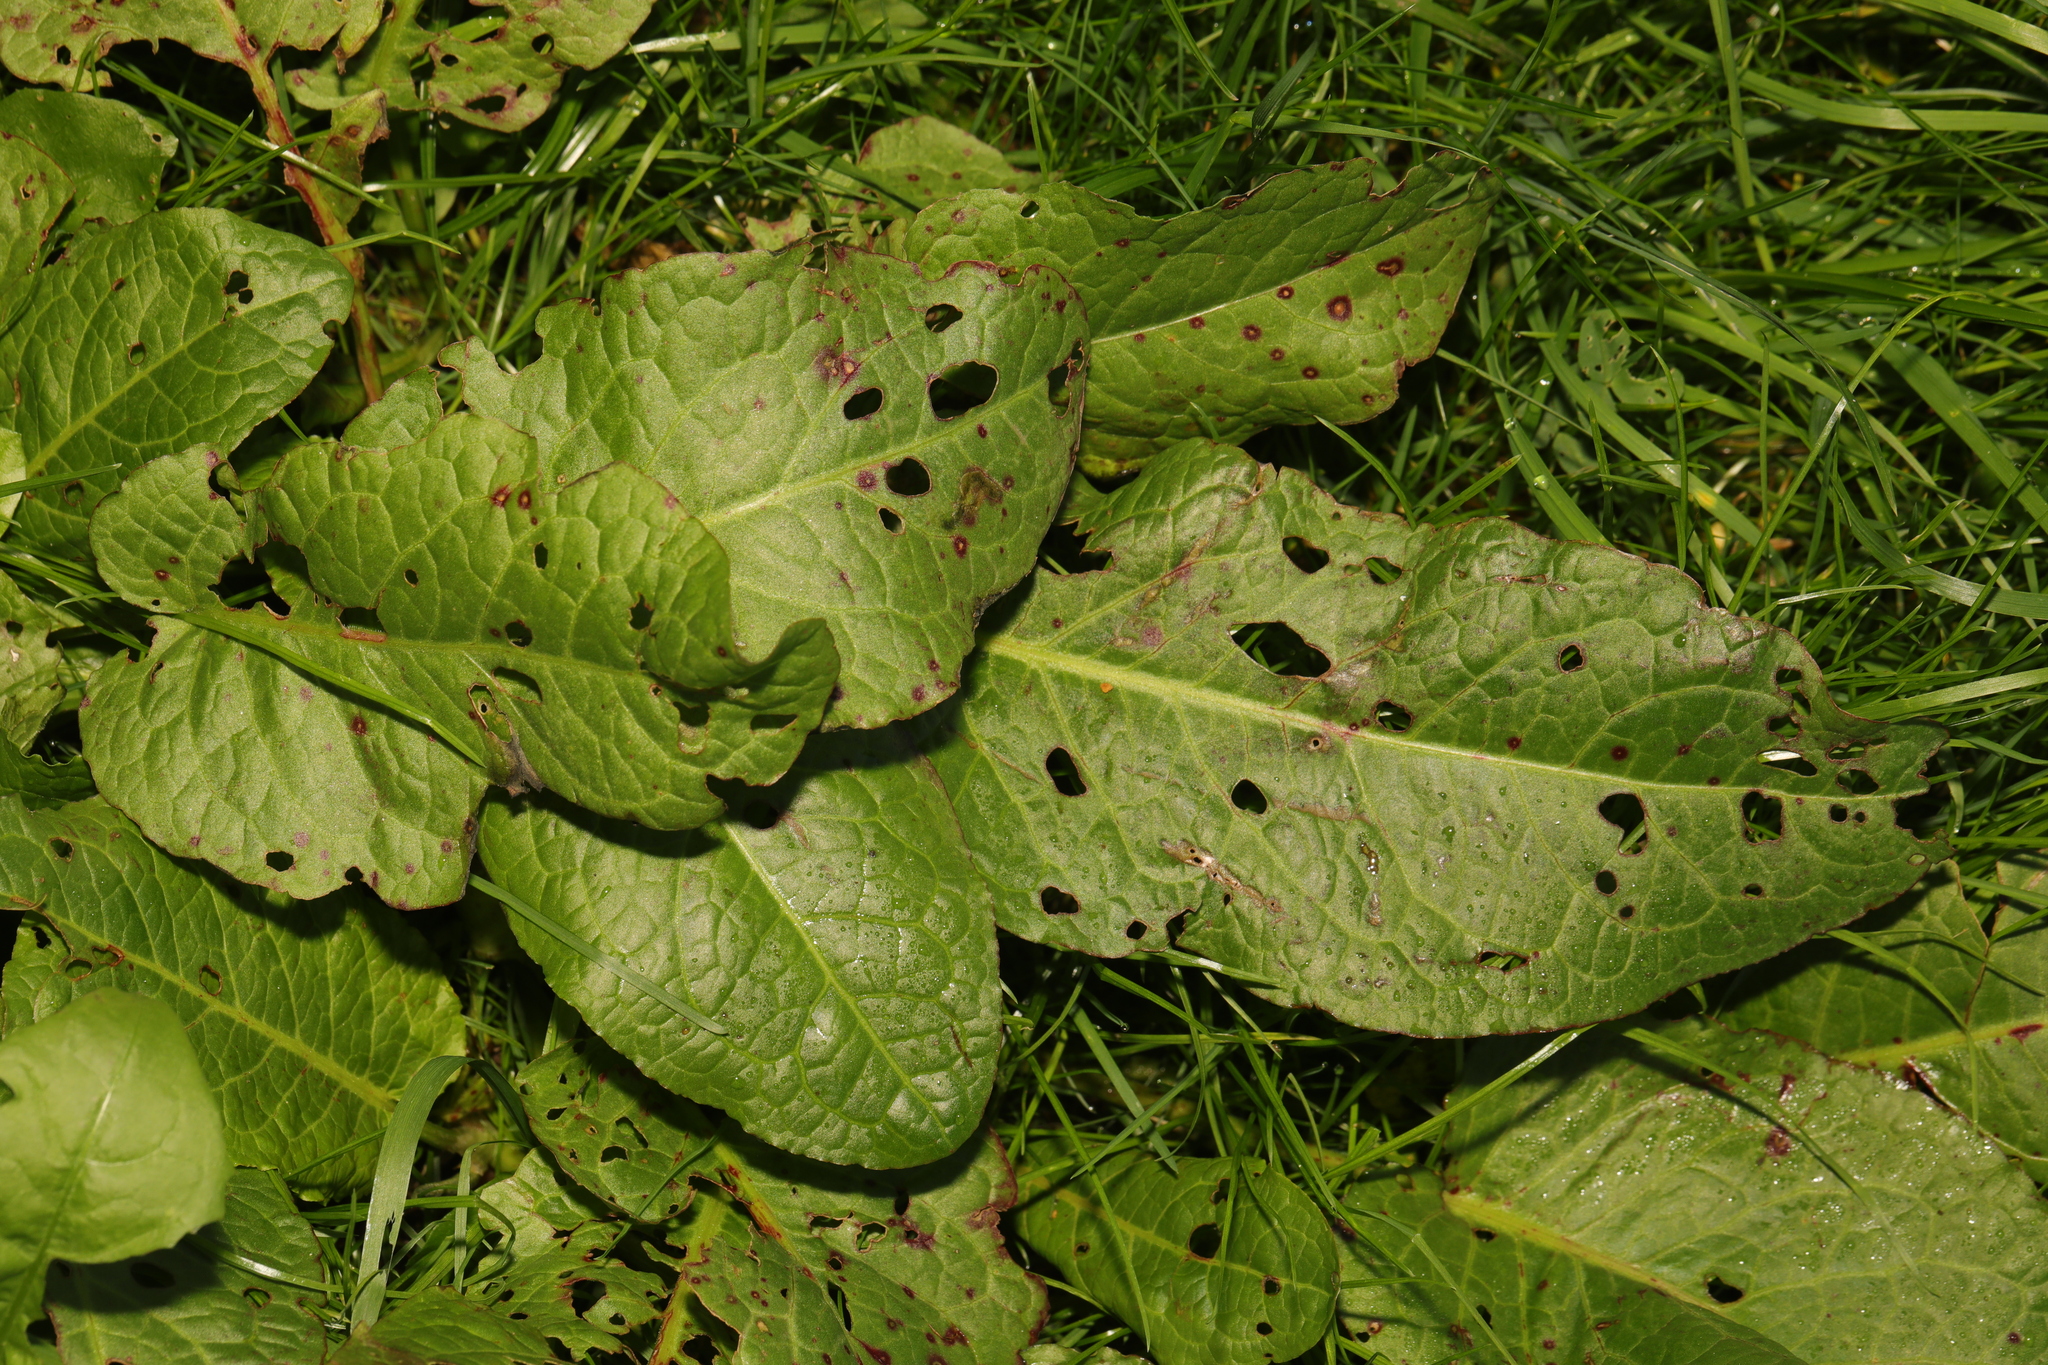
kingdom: Plantae
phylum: Tracheophyta
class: Magnoliopsida
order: Caryophyllales
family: Polygonaceae
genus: Rumex
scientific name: Rumex obtusifolius
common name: Bitter dock
